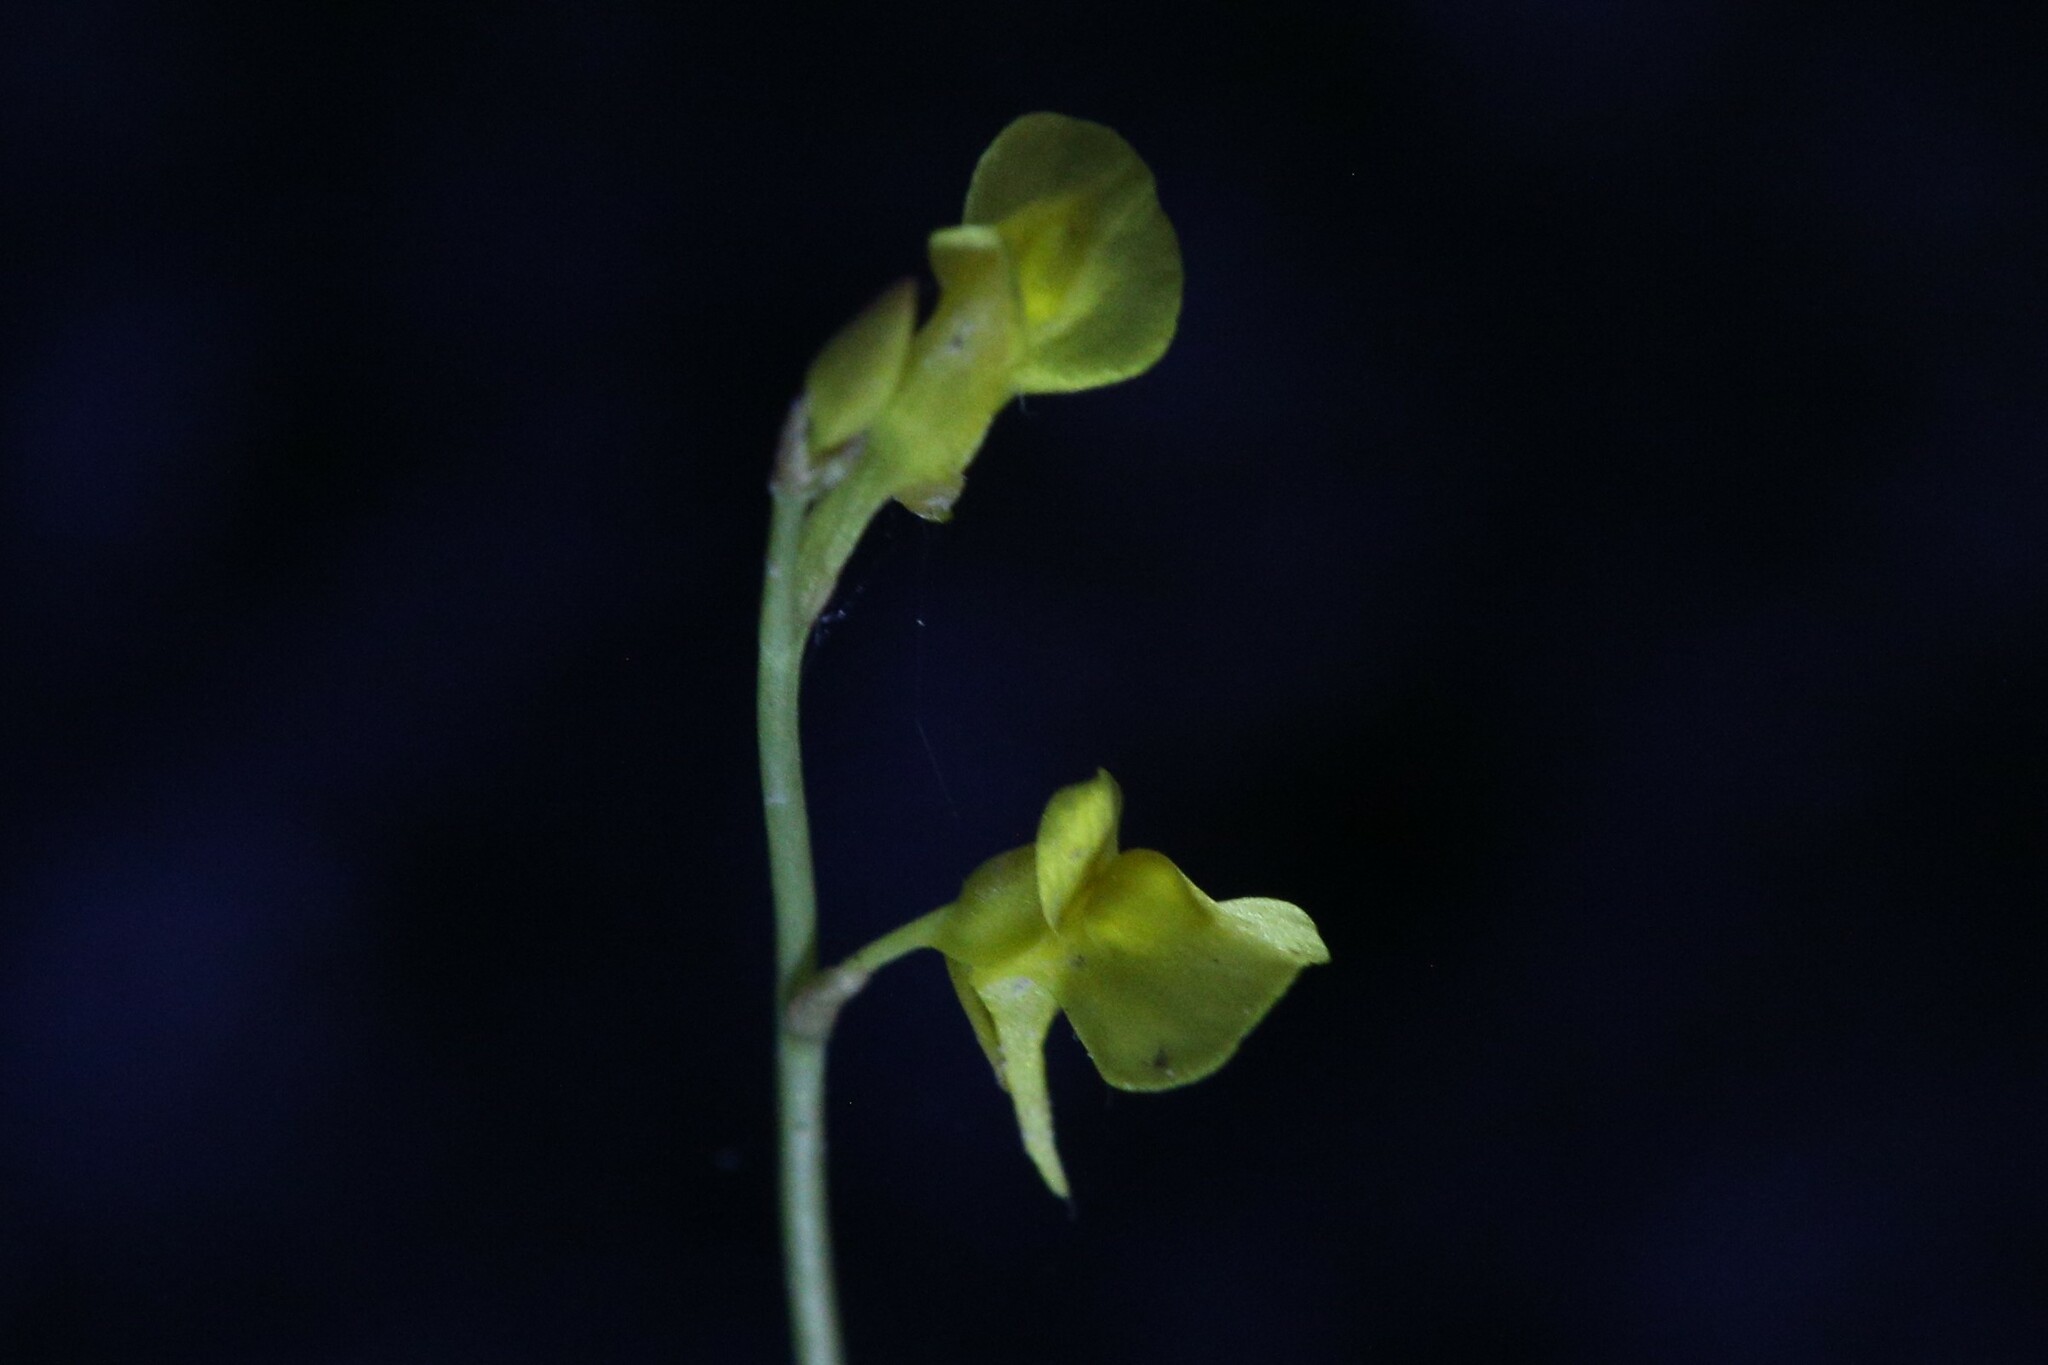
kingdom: Plantae
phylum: Tracheophyta
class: Magnoliopsida
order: Lamiales
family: Lentibulariaceae
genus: Utricularia
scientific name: Utricularia bifida
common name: Bifid bladderwort
